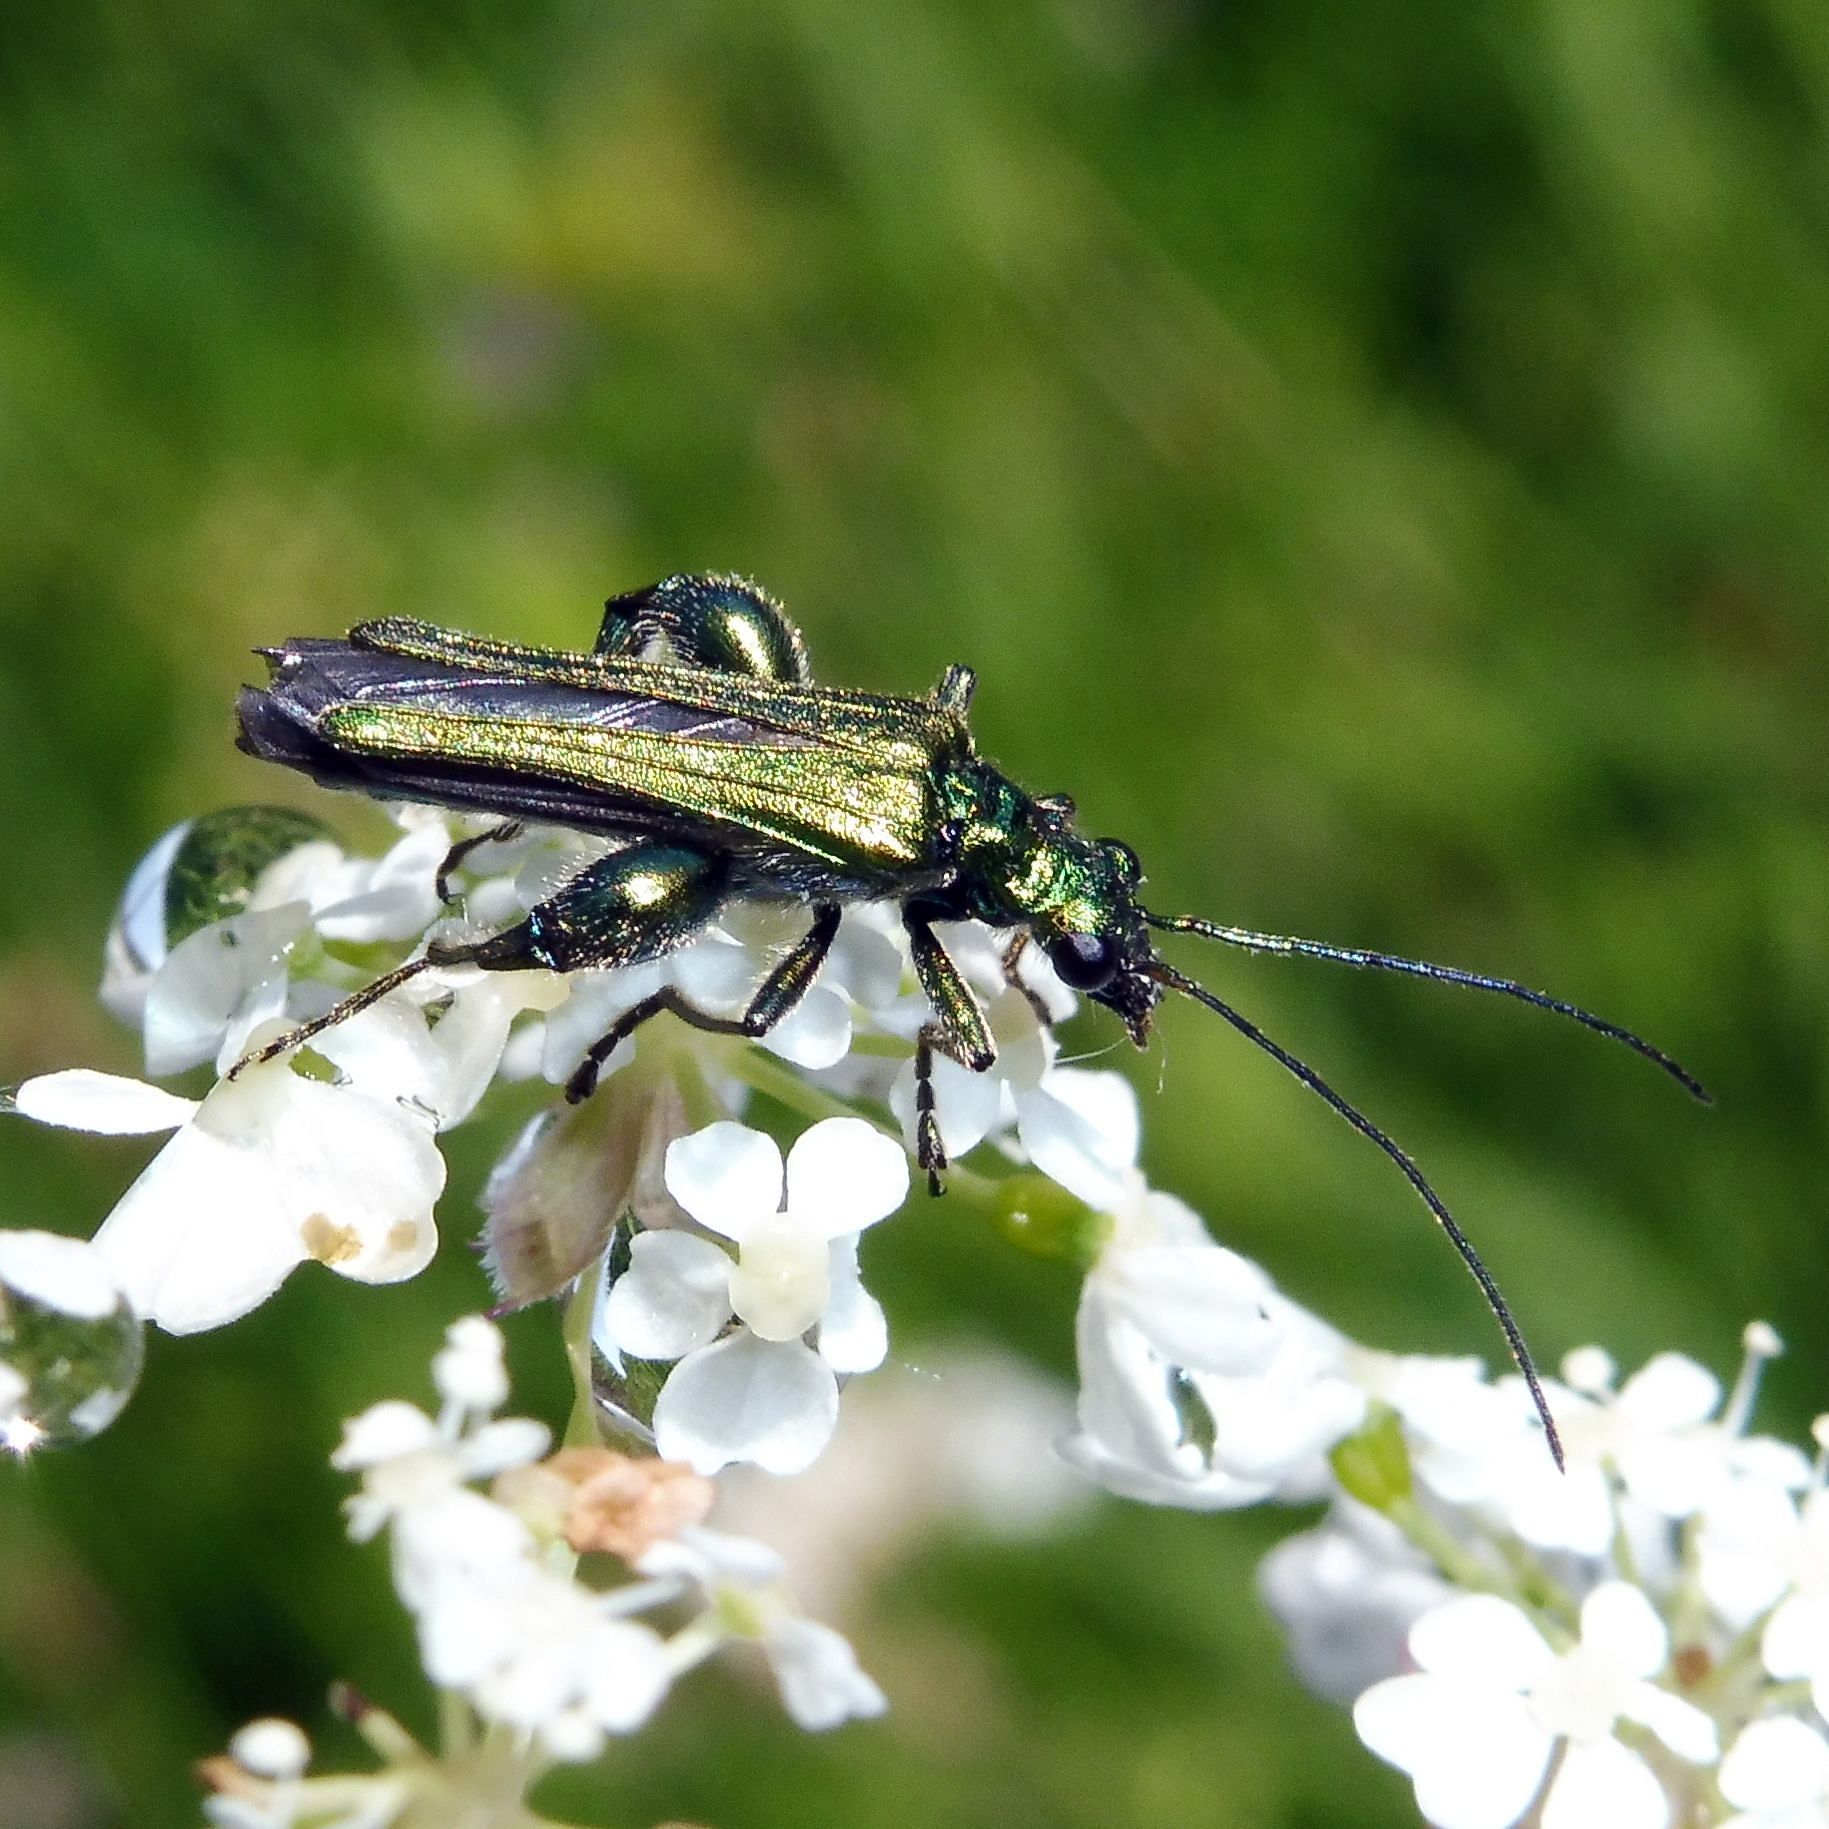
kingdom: Animalia
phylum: Arthropoda
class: Insecta
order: Coleoptera
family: Oedemeridae
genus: Oedemera
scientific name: Oedemera nobilis
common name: Swollen-thighed beetle
